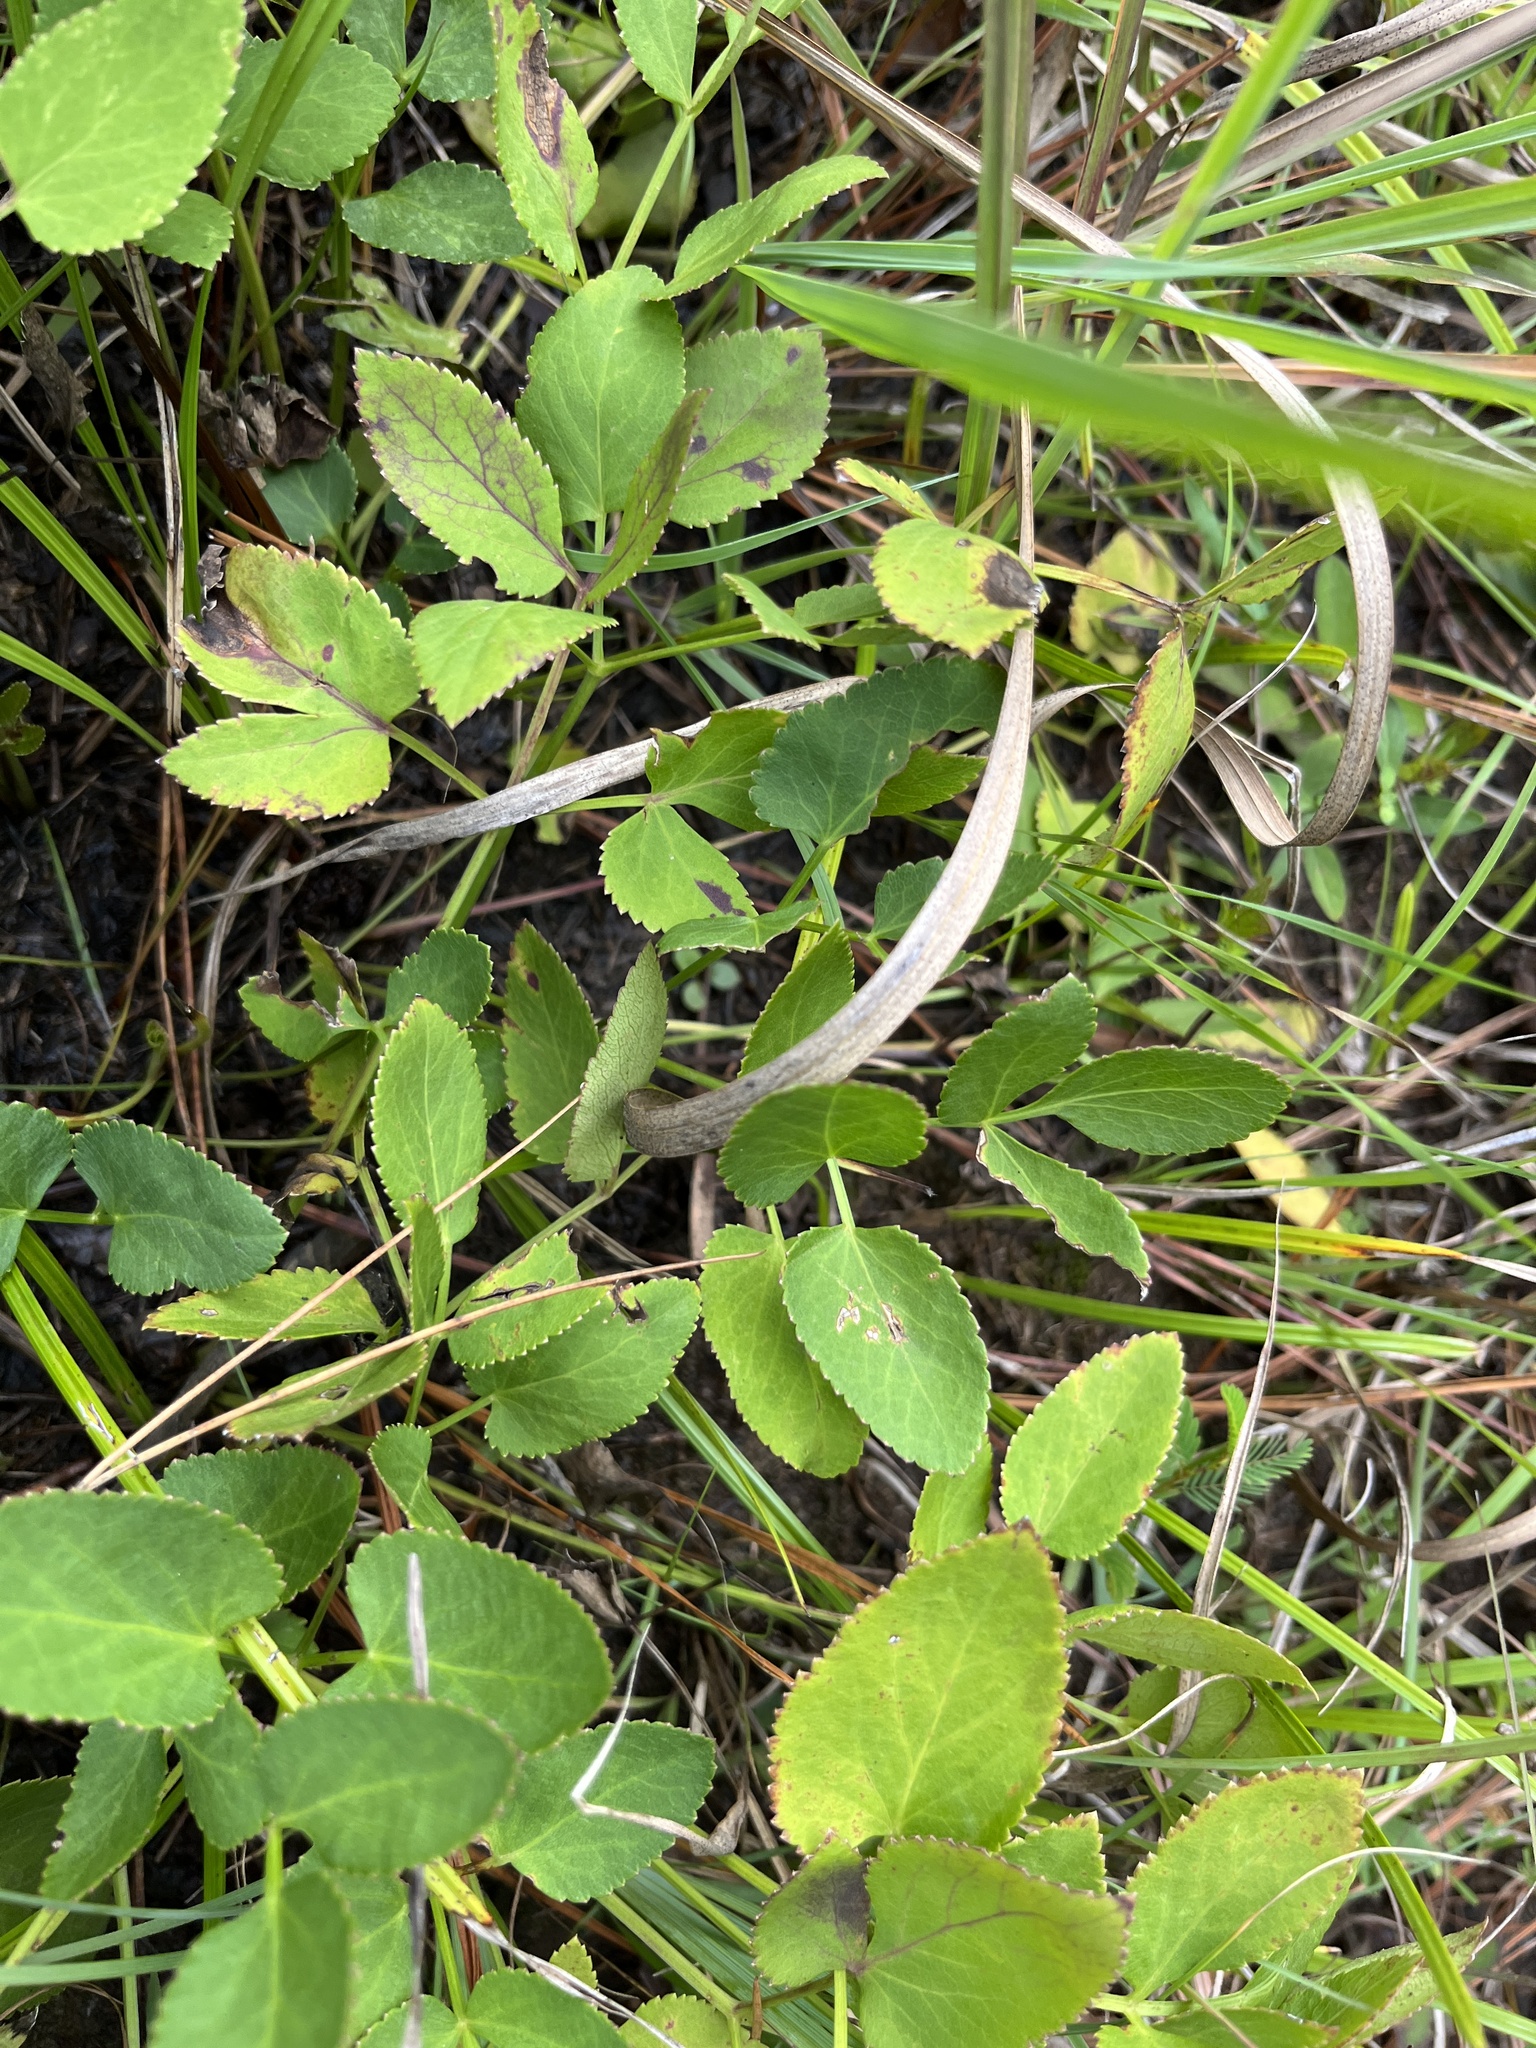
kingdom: Plantae
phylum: Tracheophyta
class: Magnoliopsida
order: Apiales
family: Apiaceae
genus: Angelica
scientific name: Angelica venenosa
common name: Hairy angelica
